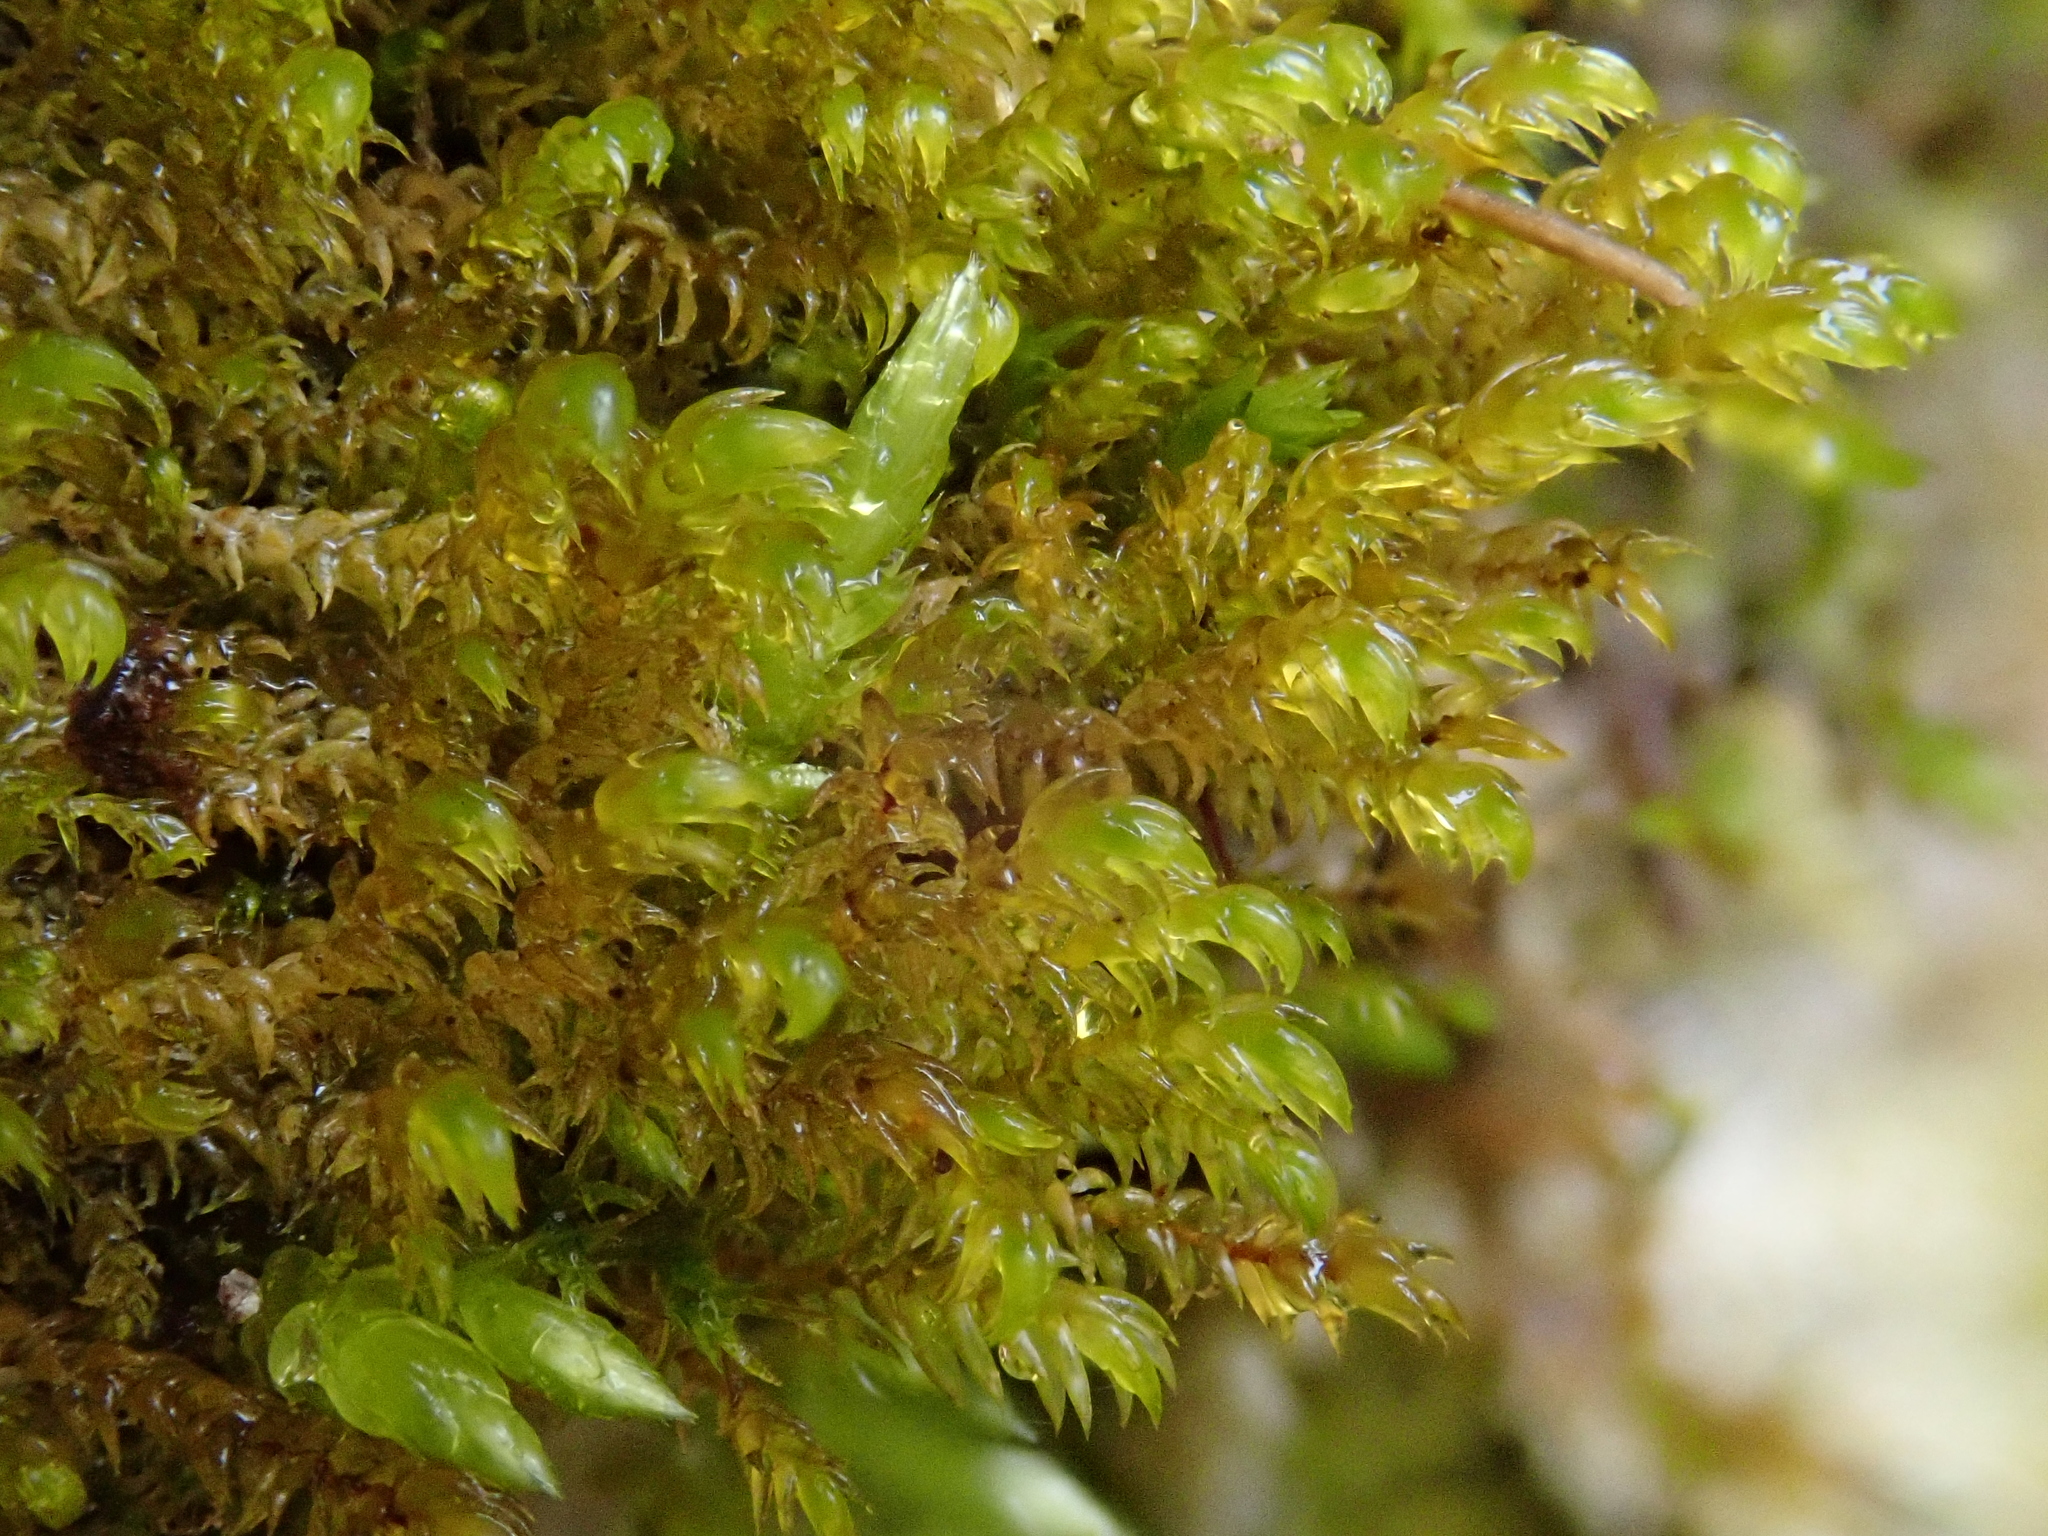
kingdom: Plantae
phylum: Bryophyta
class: Bryopsida
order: Hypnales
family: Amblystegiaceae
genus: Hygrohypnum
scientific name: Hygrohypnum luridum
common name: Drab brook moss
